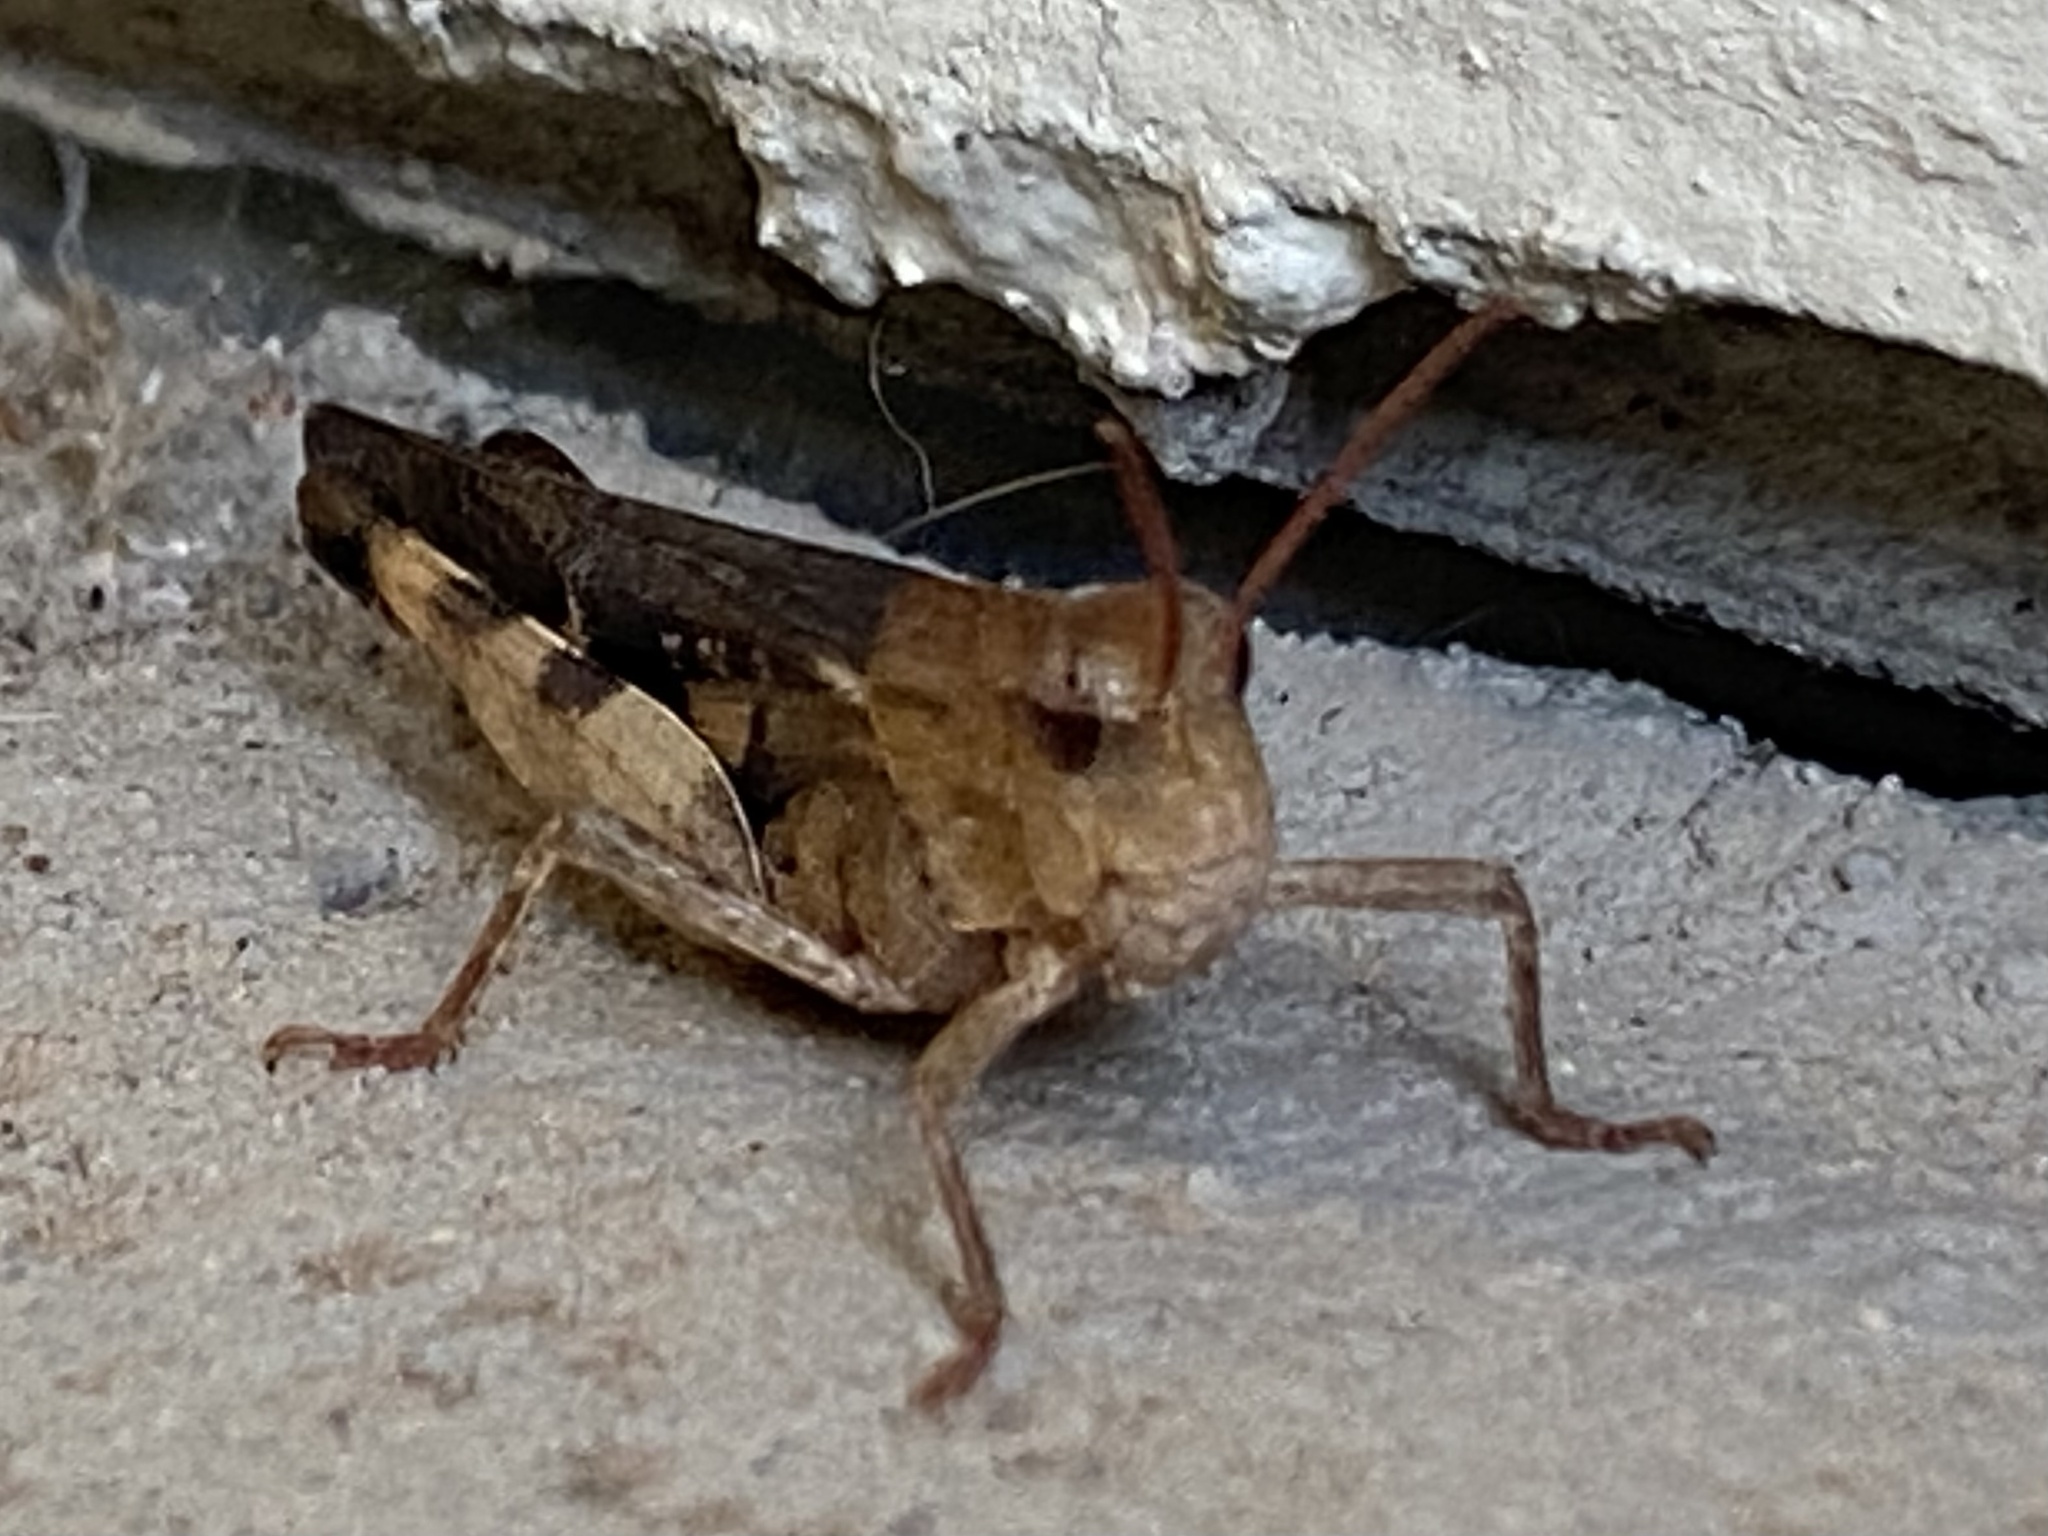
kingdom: Animalia
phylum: Arthropoda
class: Insecta
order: Orthoptera
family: Acrididae
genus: Chortophaga
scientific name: Chortophaga viridifasciata
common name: Green-striped grasshopper
